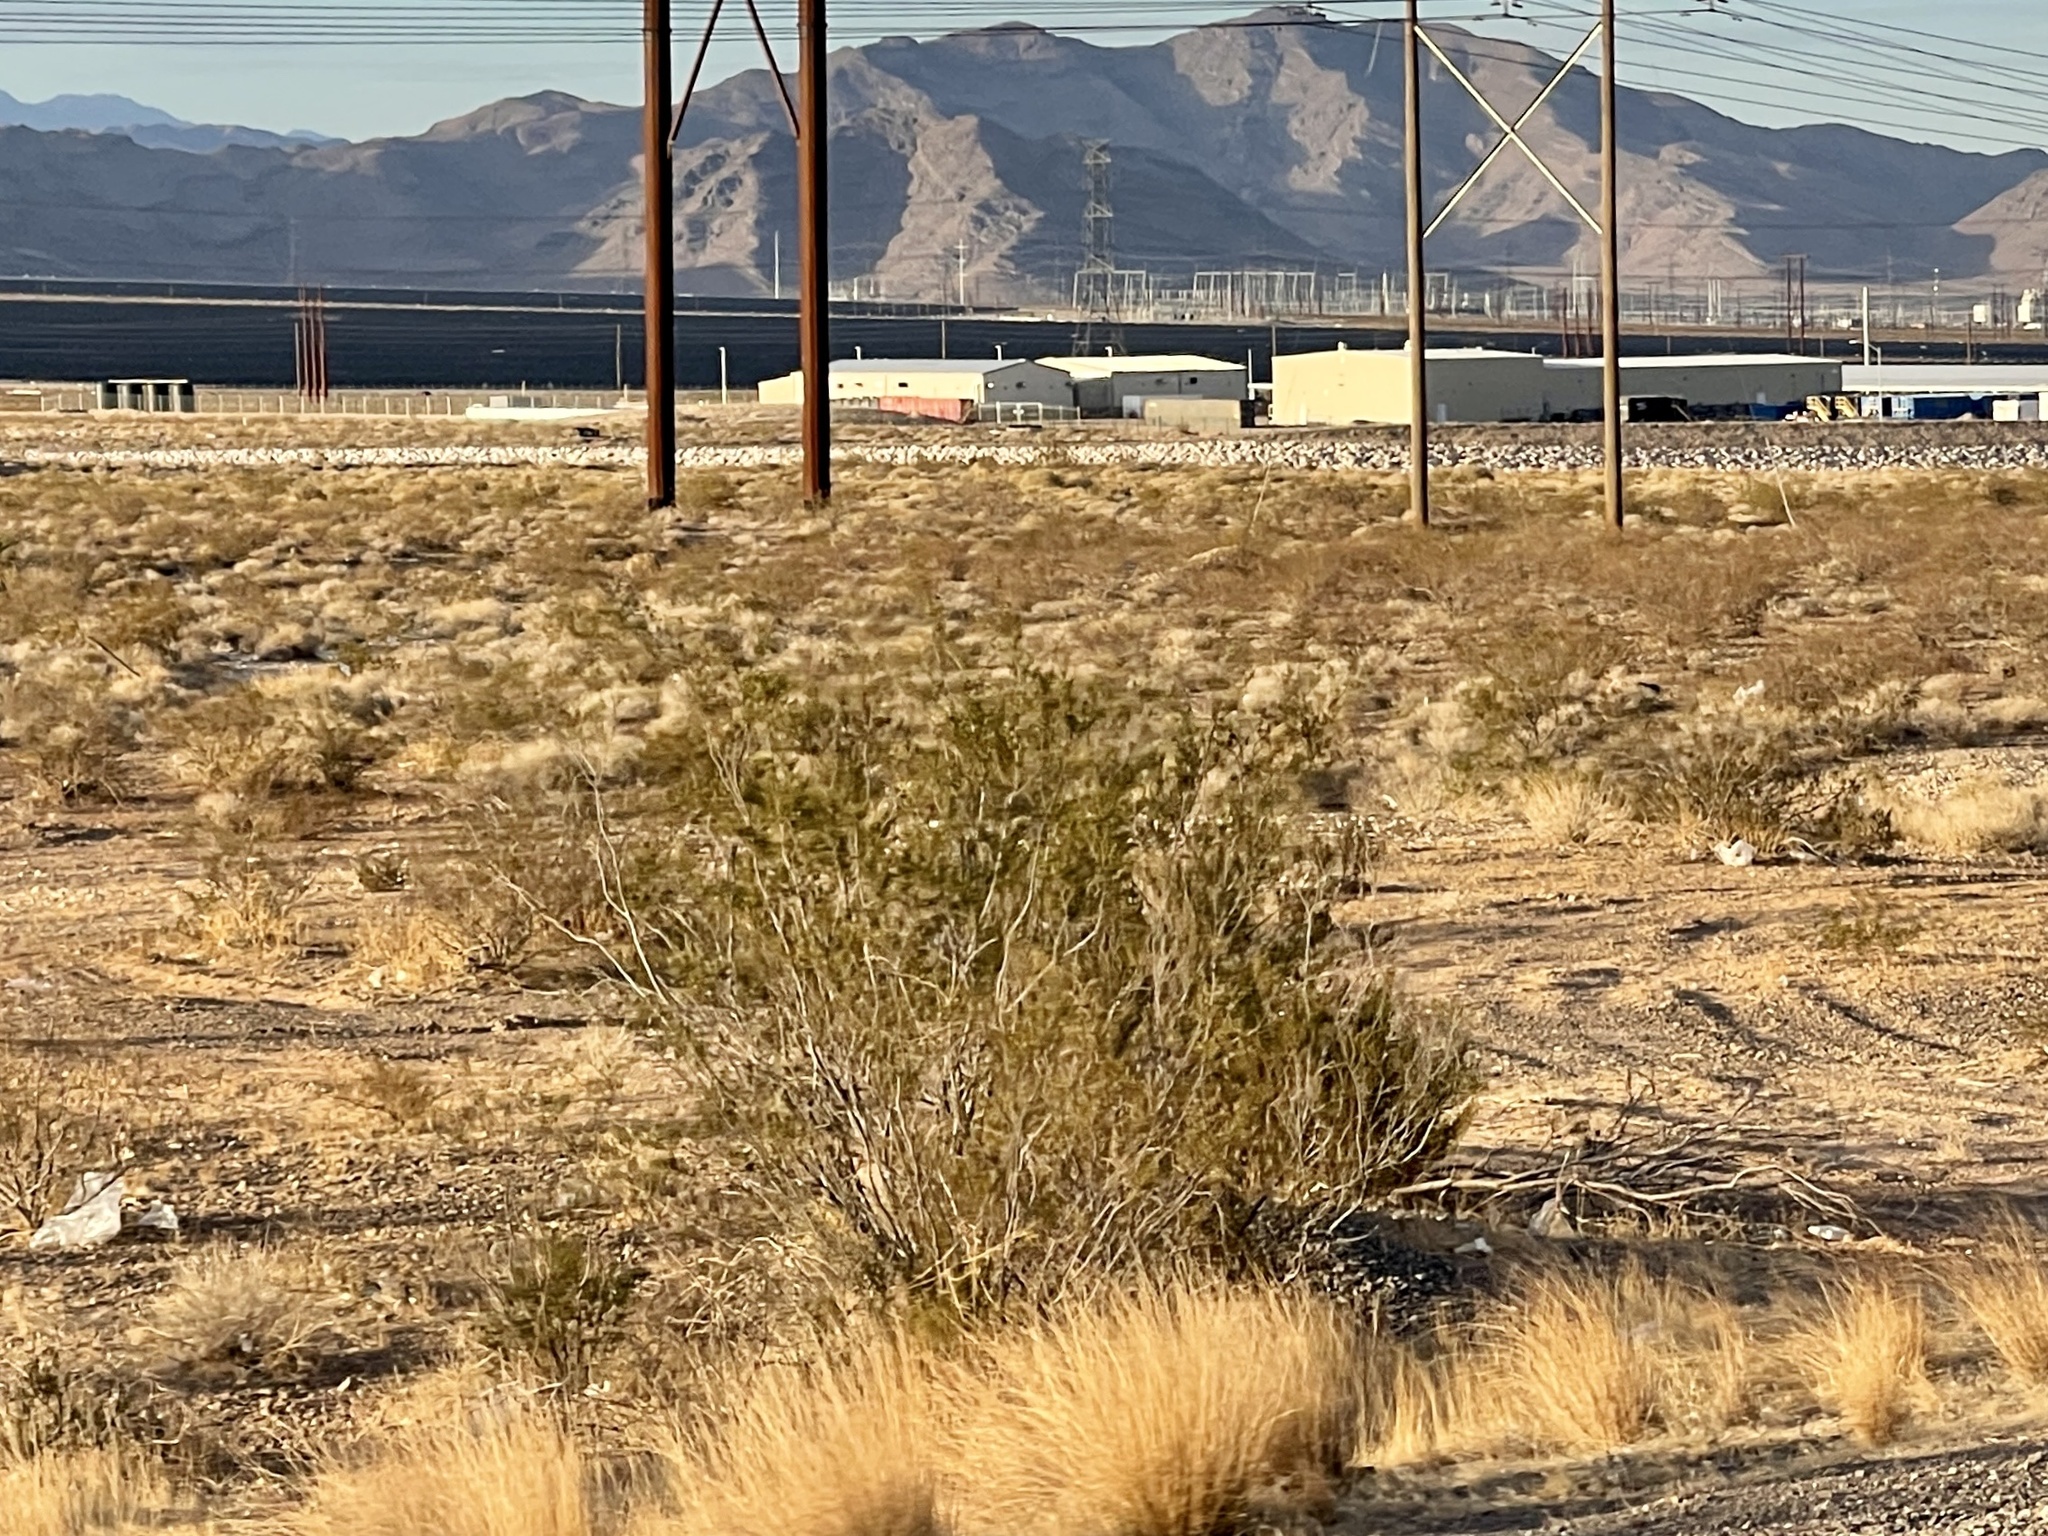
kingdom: Plantae
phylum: Tracheophyta
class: Magnoliopsida
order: Zygophyllales
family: Zygophyllaceae
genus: Larrea
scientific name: Larrea tridentata
